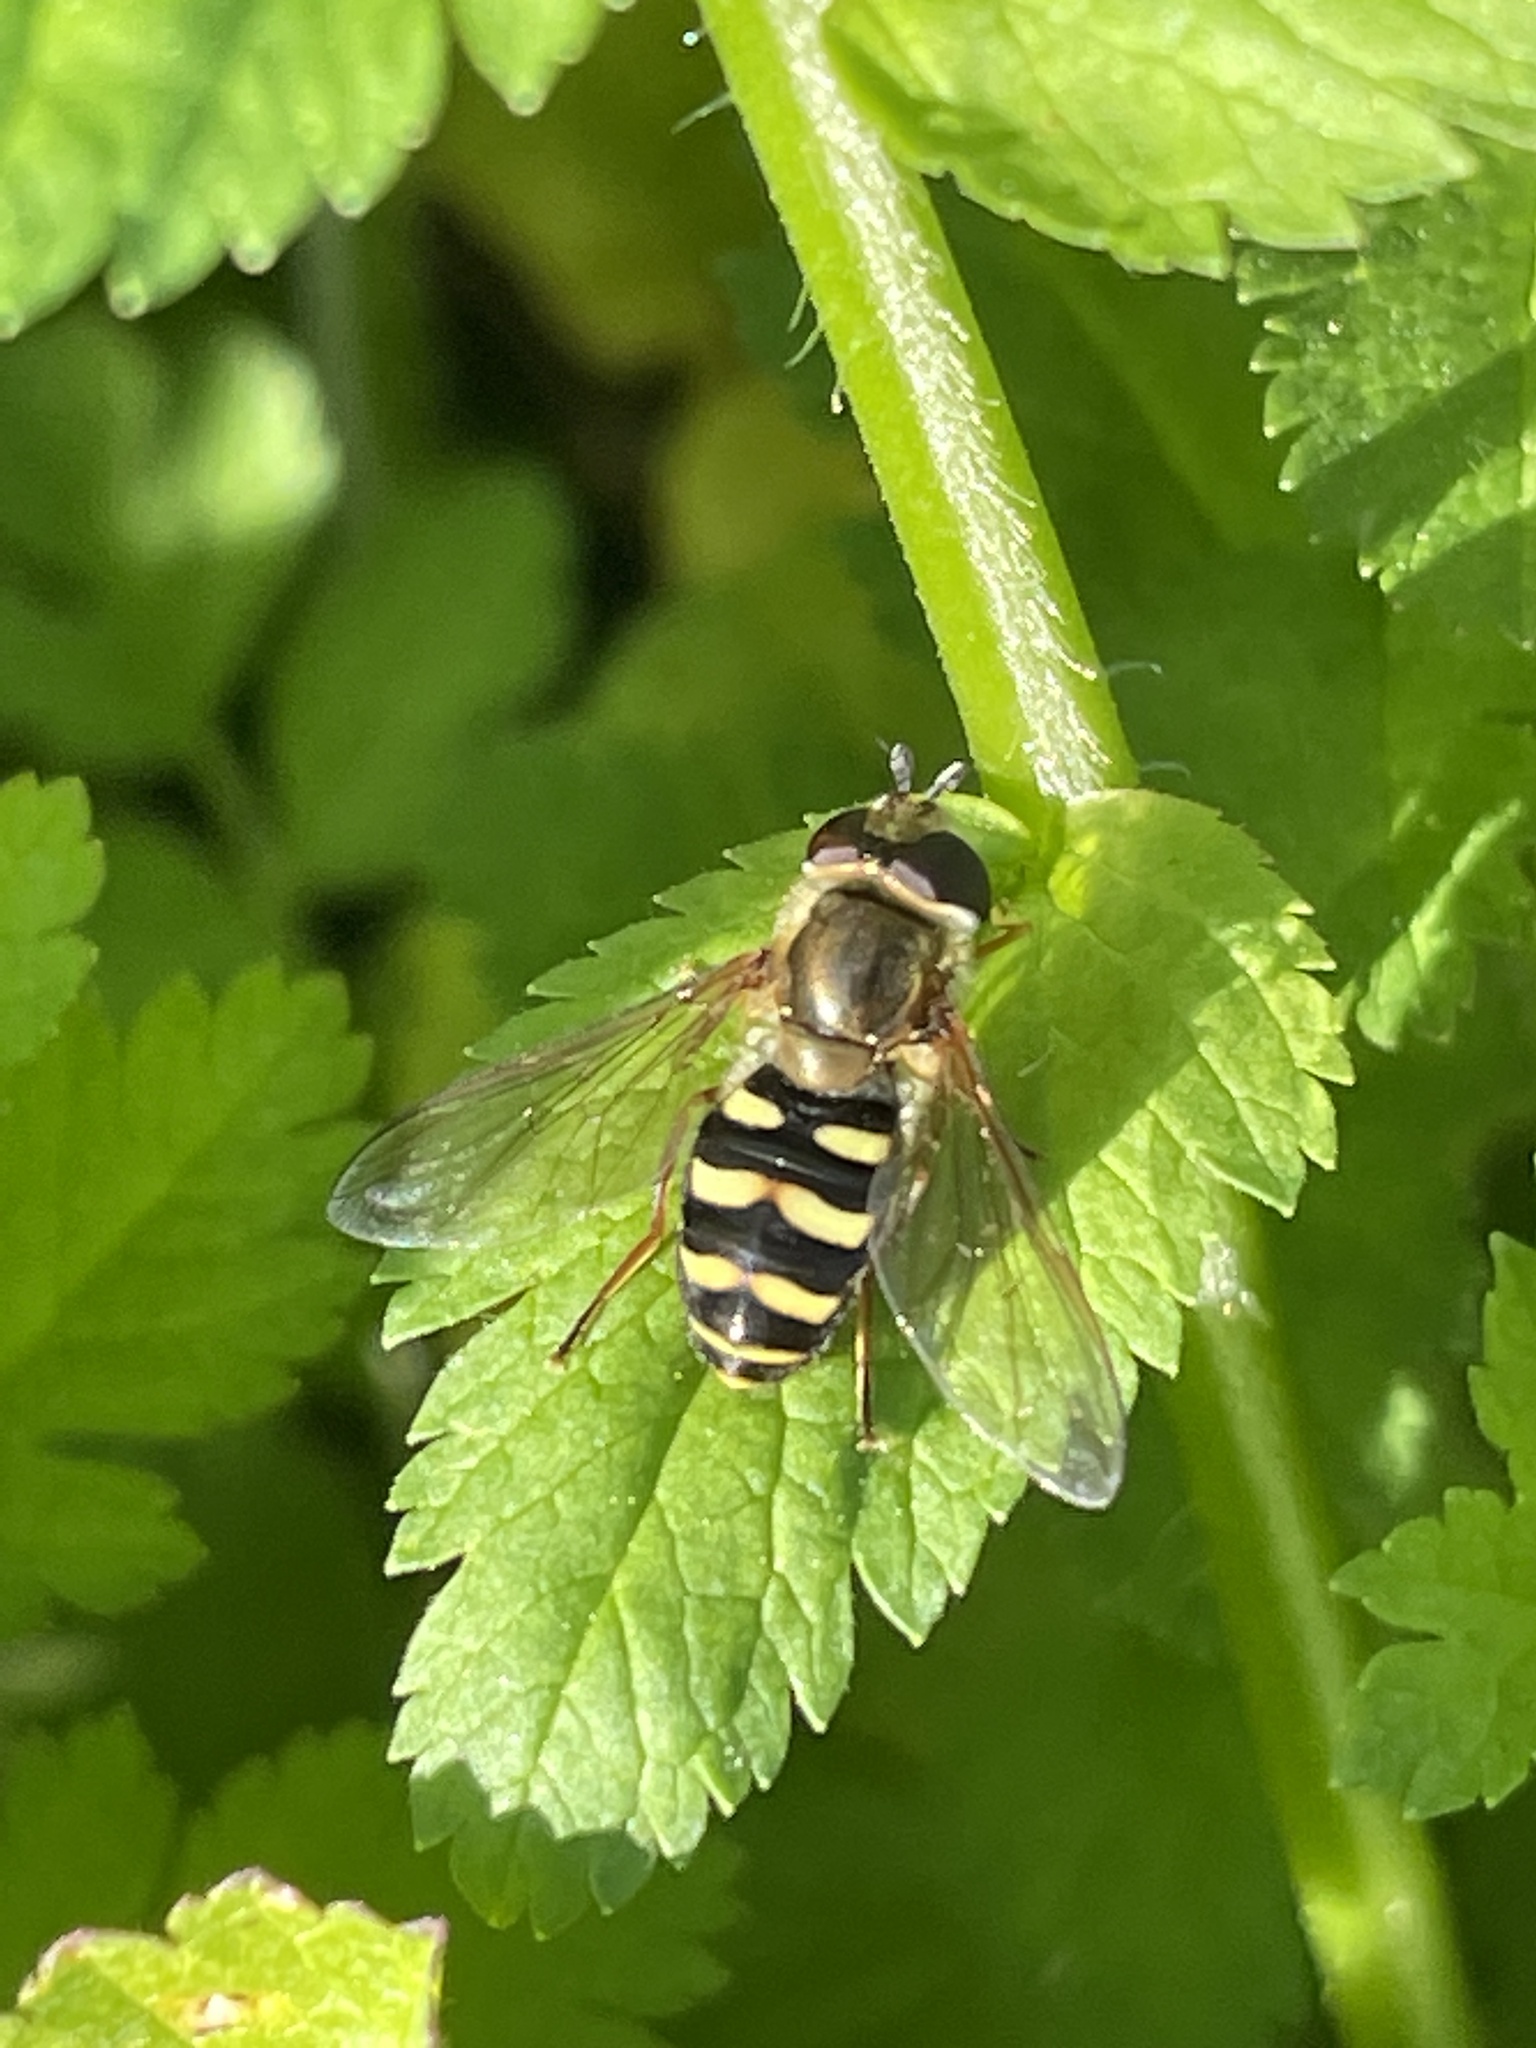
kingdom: Animalia
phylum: Arthropoda
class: Insecta
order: Diptera
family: Syrphidae
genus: Eupeodes
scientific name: Eupeodes fumipennis
